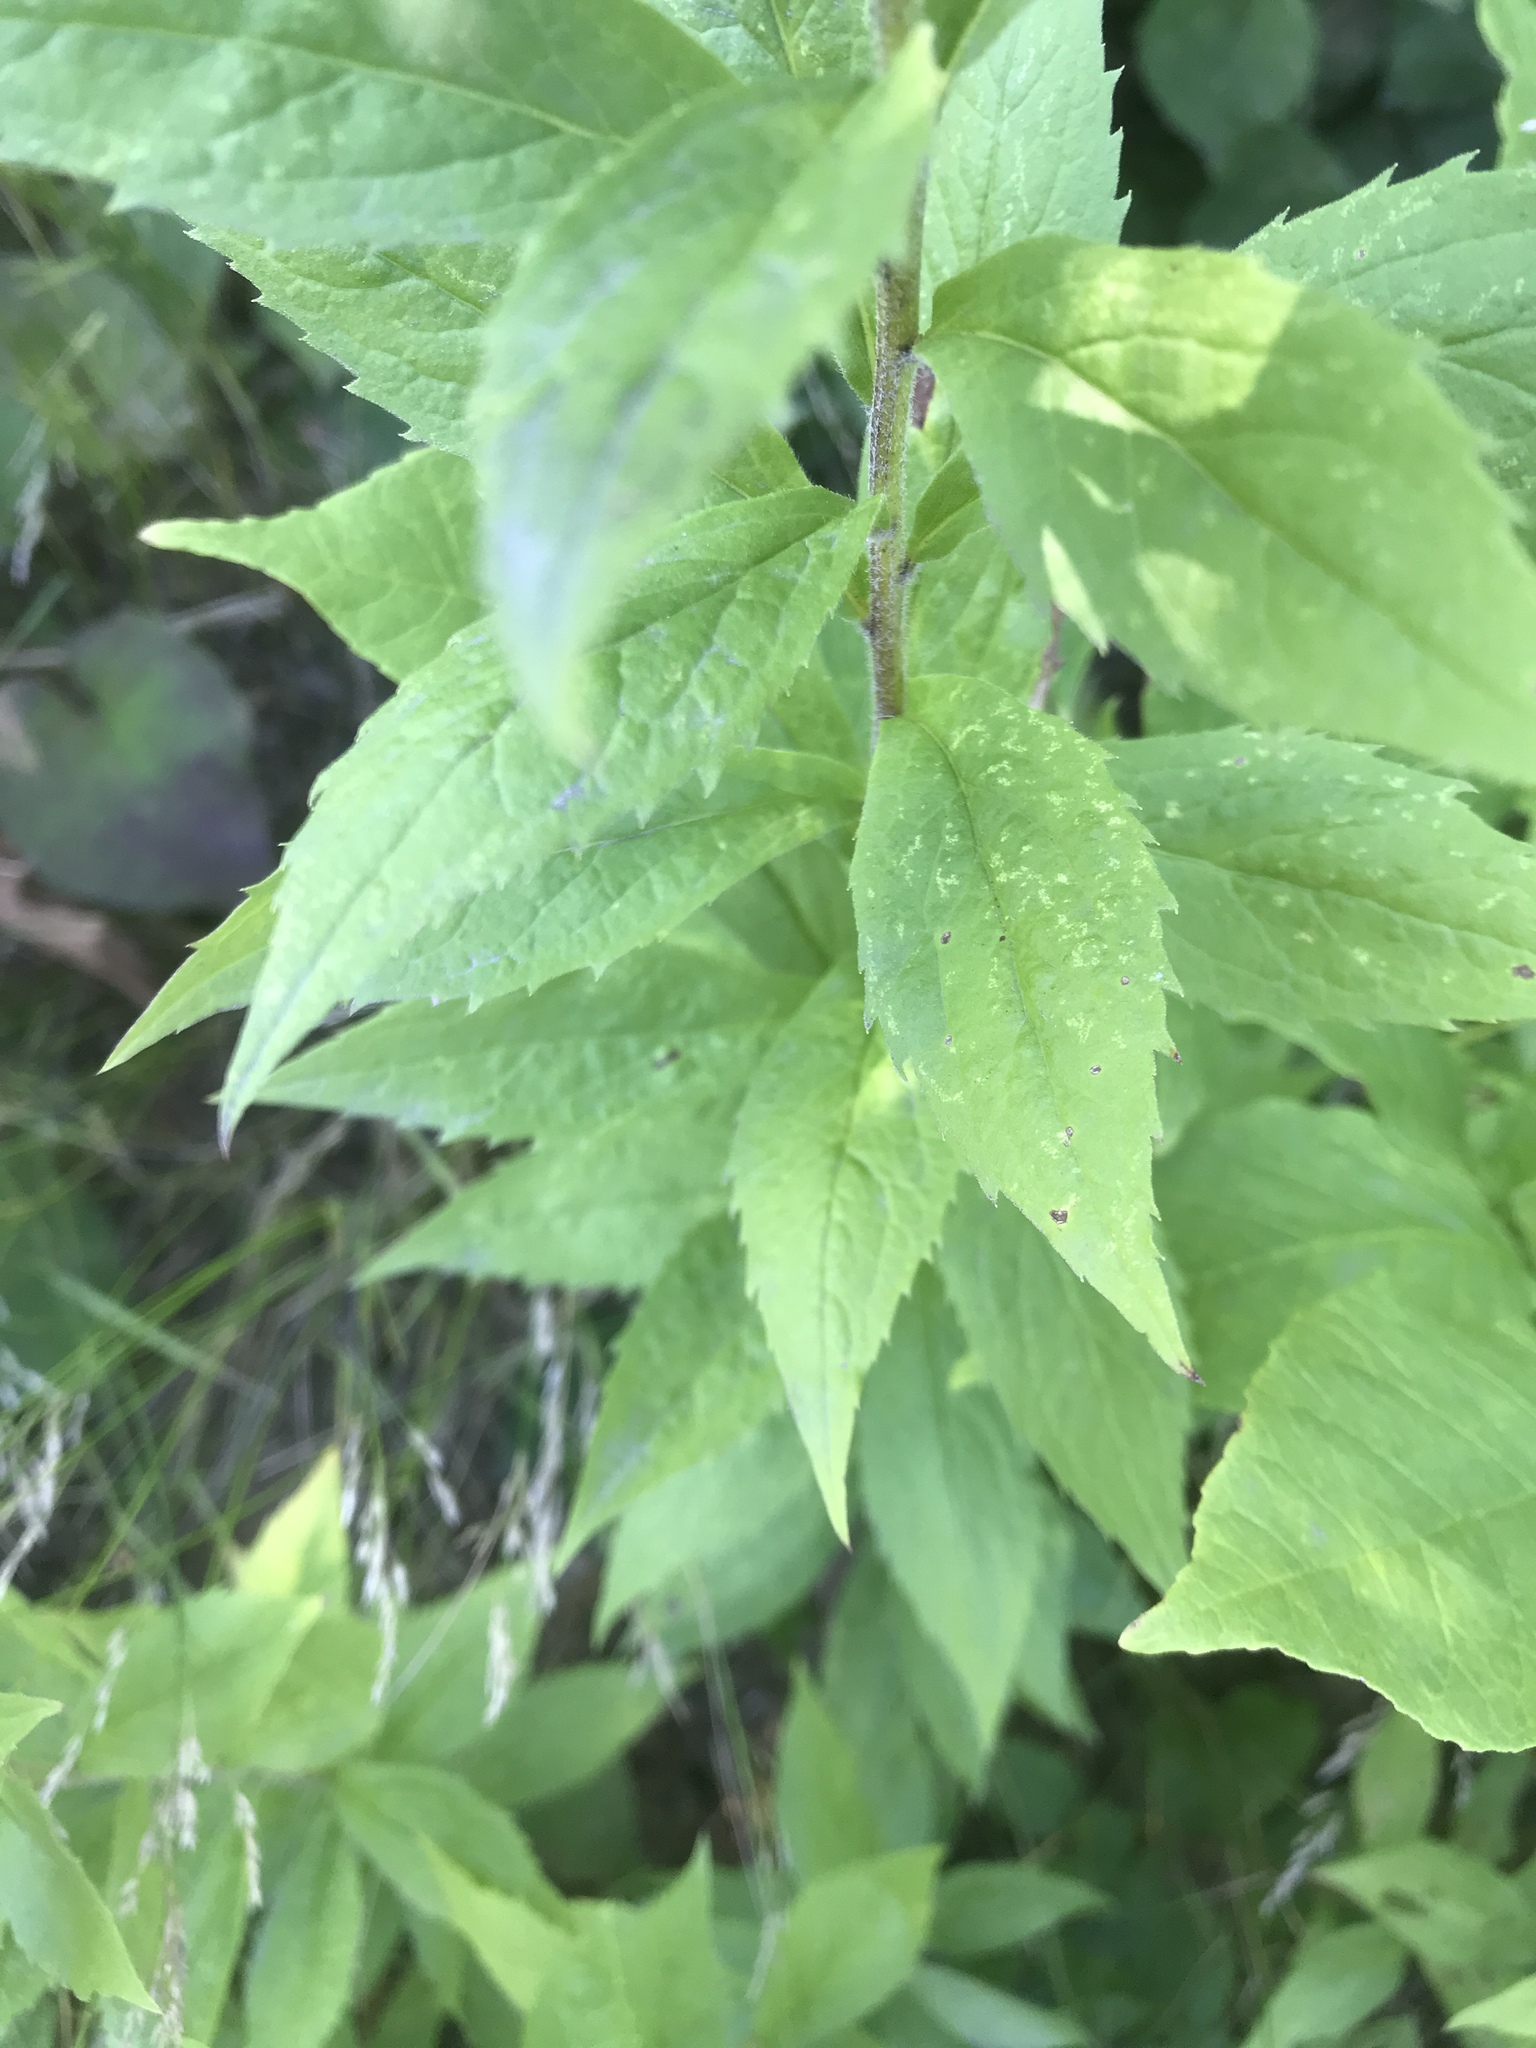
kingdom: Plantae
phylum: Tracheophyta
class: Magnoliopsida
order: Asterales
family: Asteraceae
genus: Solidago
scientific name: Solidago rugosa
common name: Rough-stemmed goldenrod
